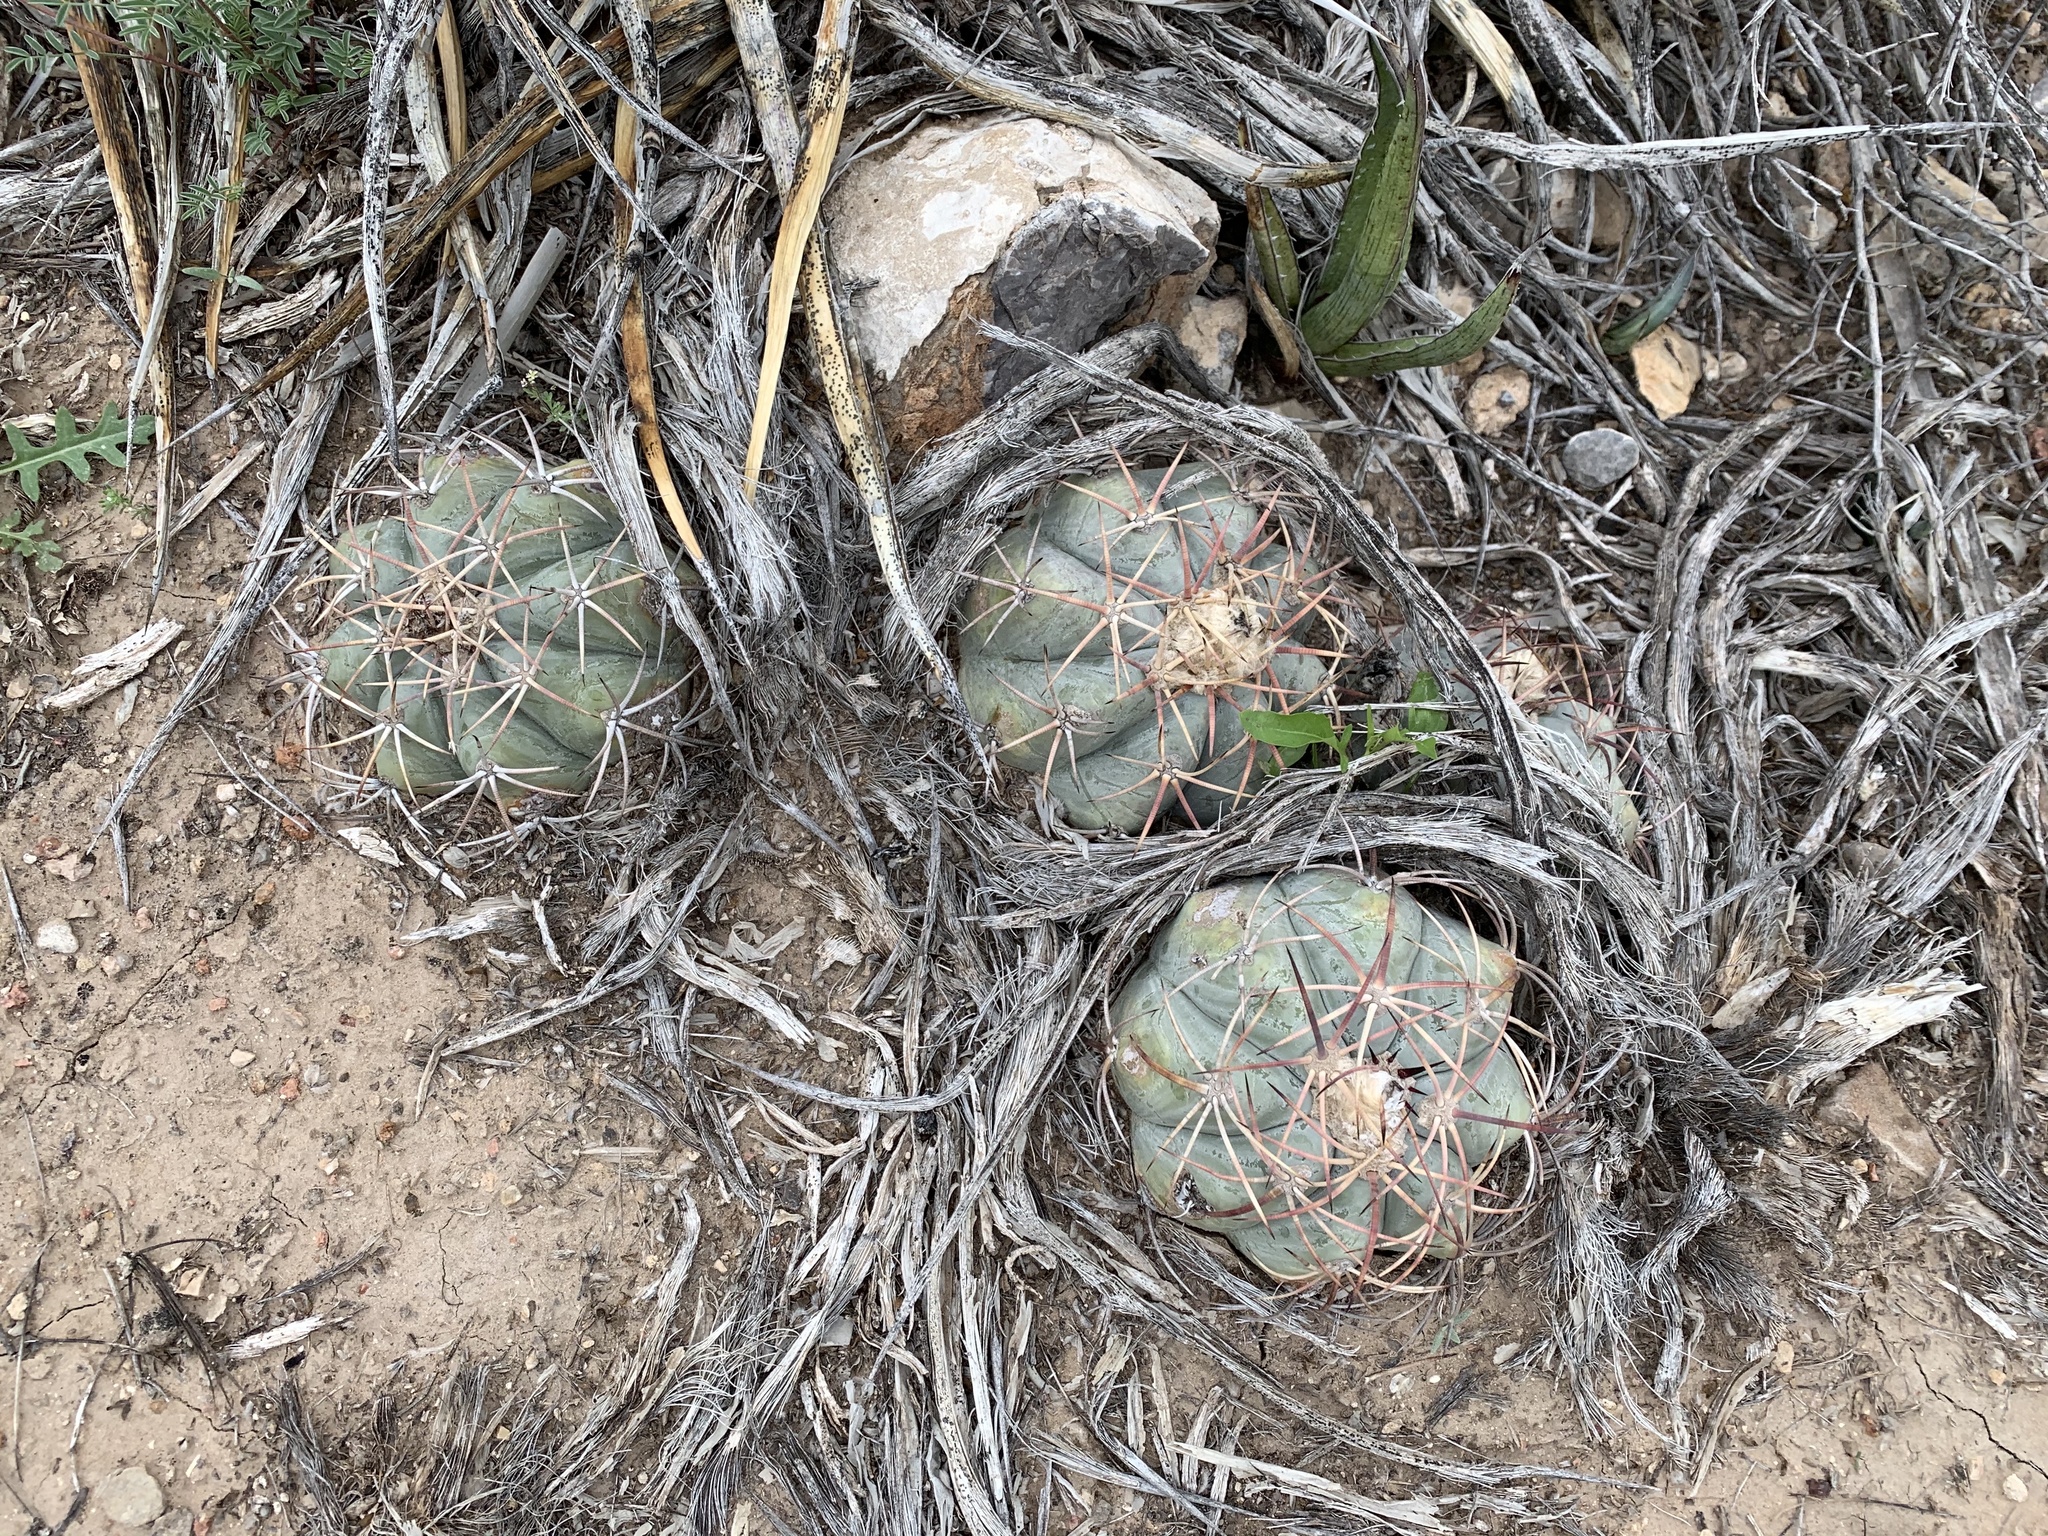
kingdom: Plantae
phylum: Tracheophyta
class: Magnoliopsida
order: Caryophyllales
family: Cactaceae
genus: Echinocactus
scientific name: Echinocactus horizonthalonius
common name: Devilshead
